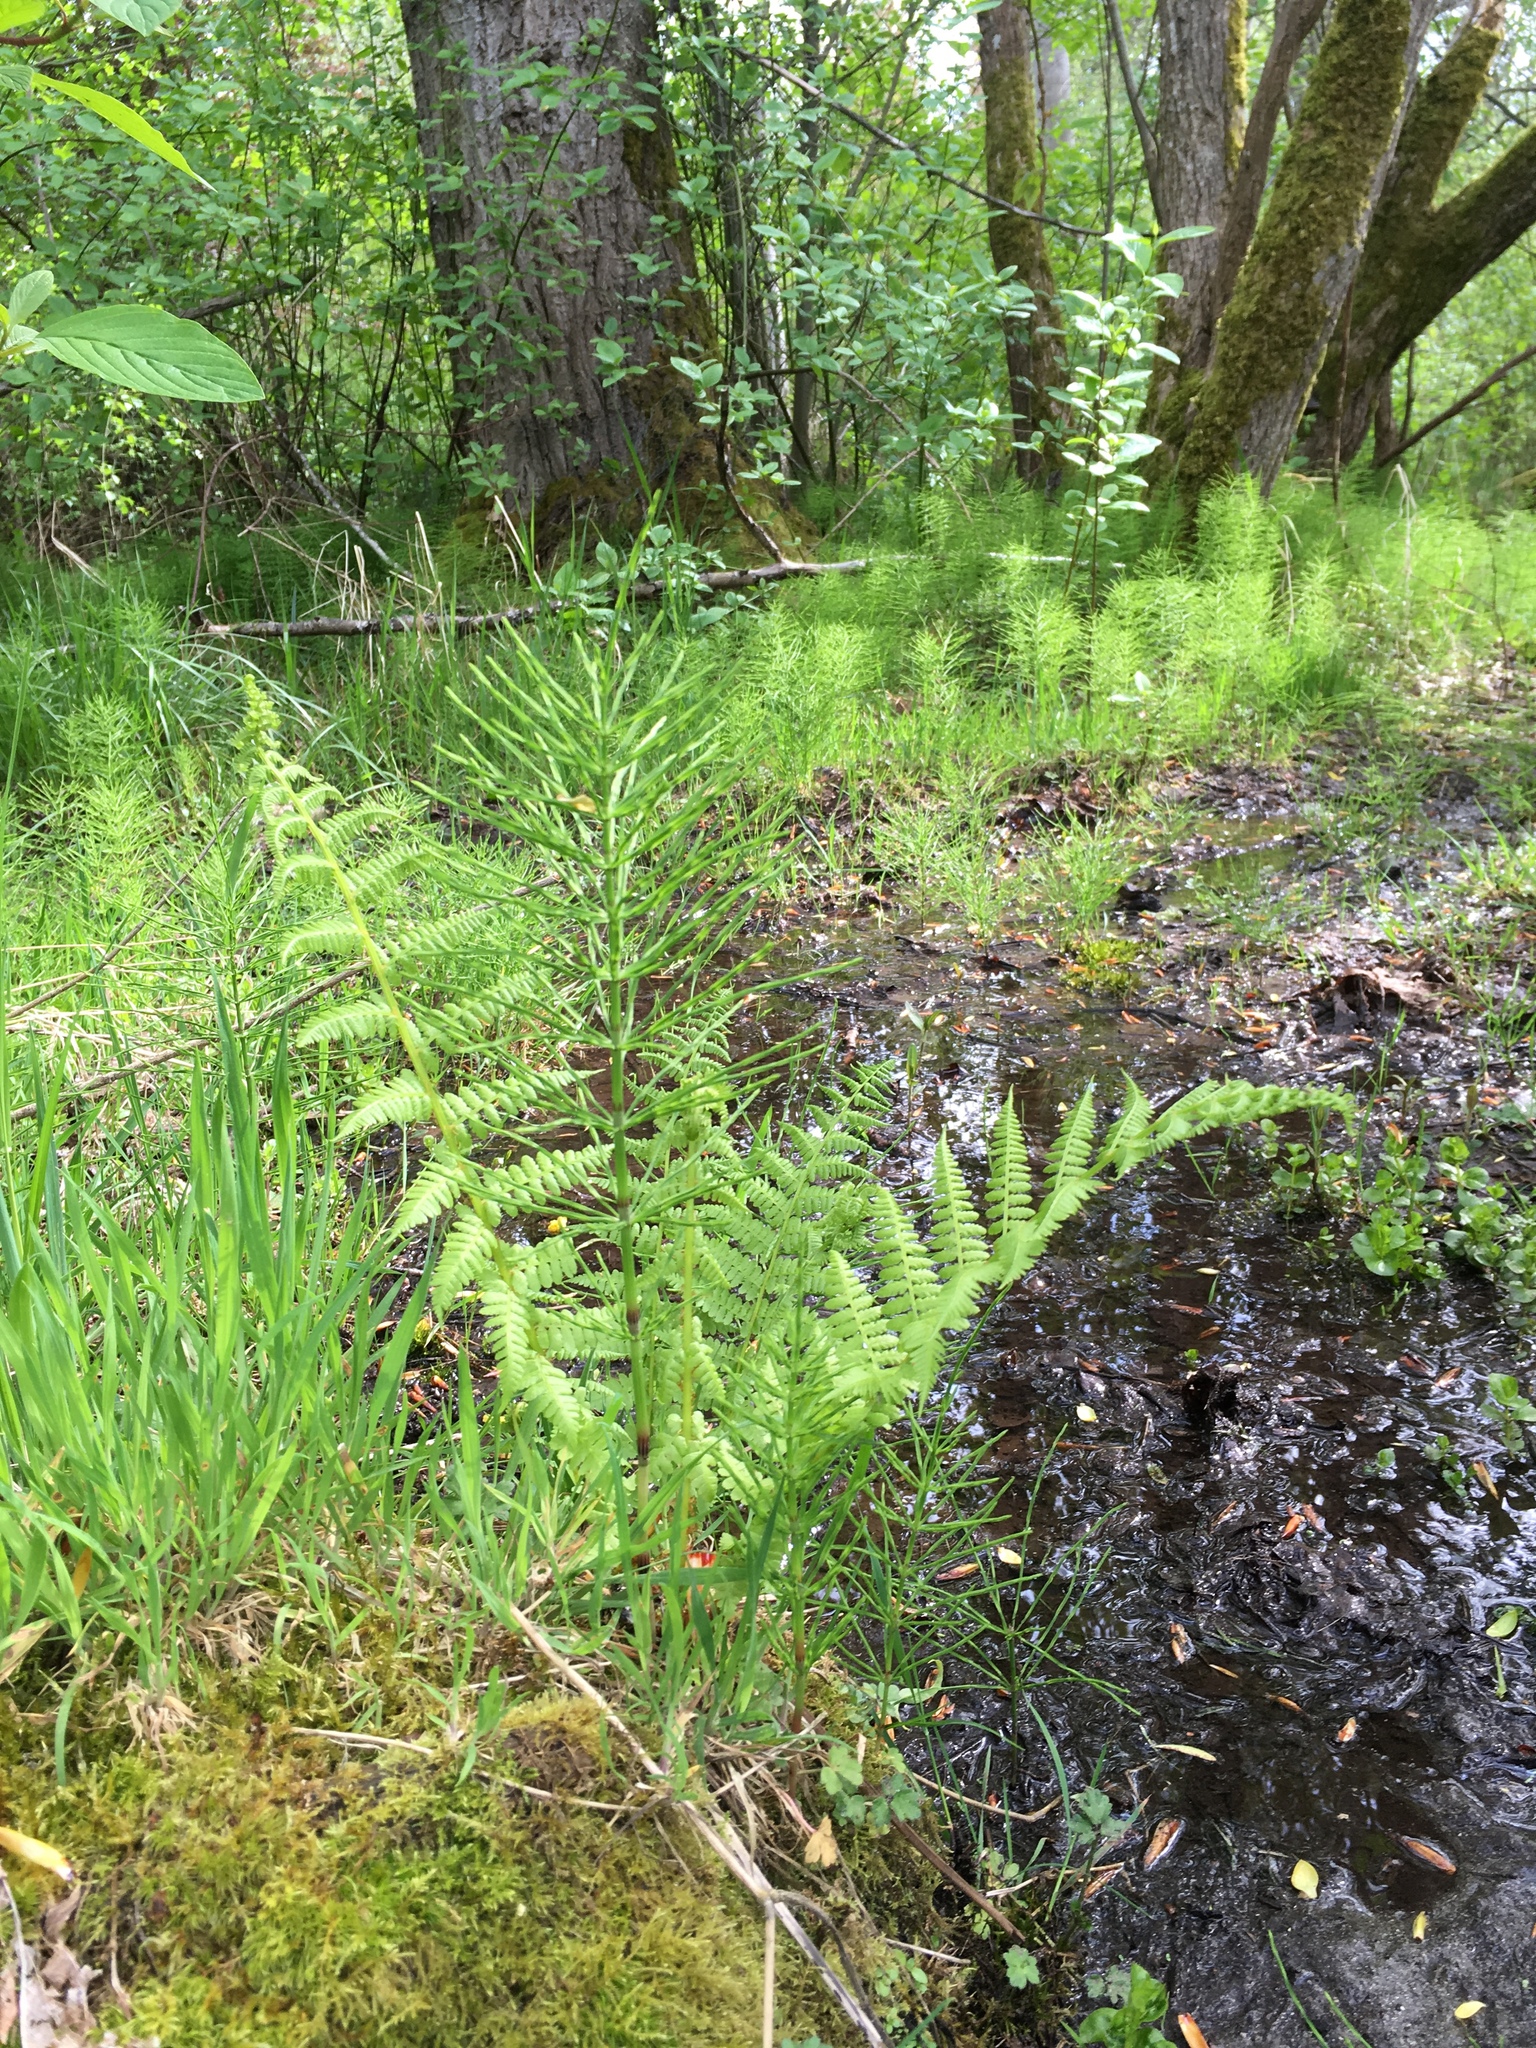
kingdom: Plantae
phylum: Tracheophyta
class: Polypodiopsida
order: Polypodiales
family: Athyriaceae
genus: Athyrium
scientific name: Athyrium filix-femina
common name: Lady fern
